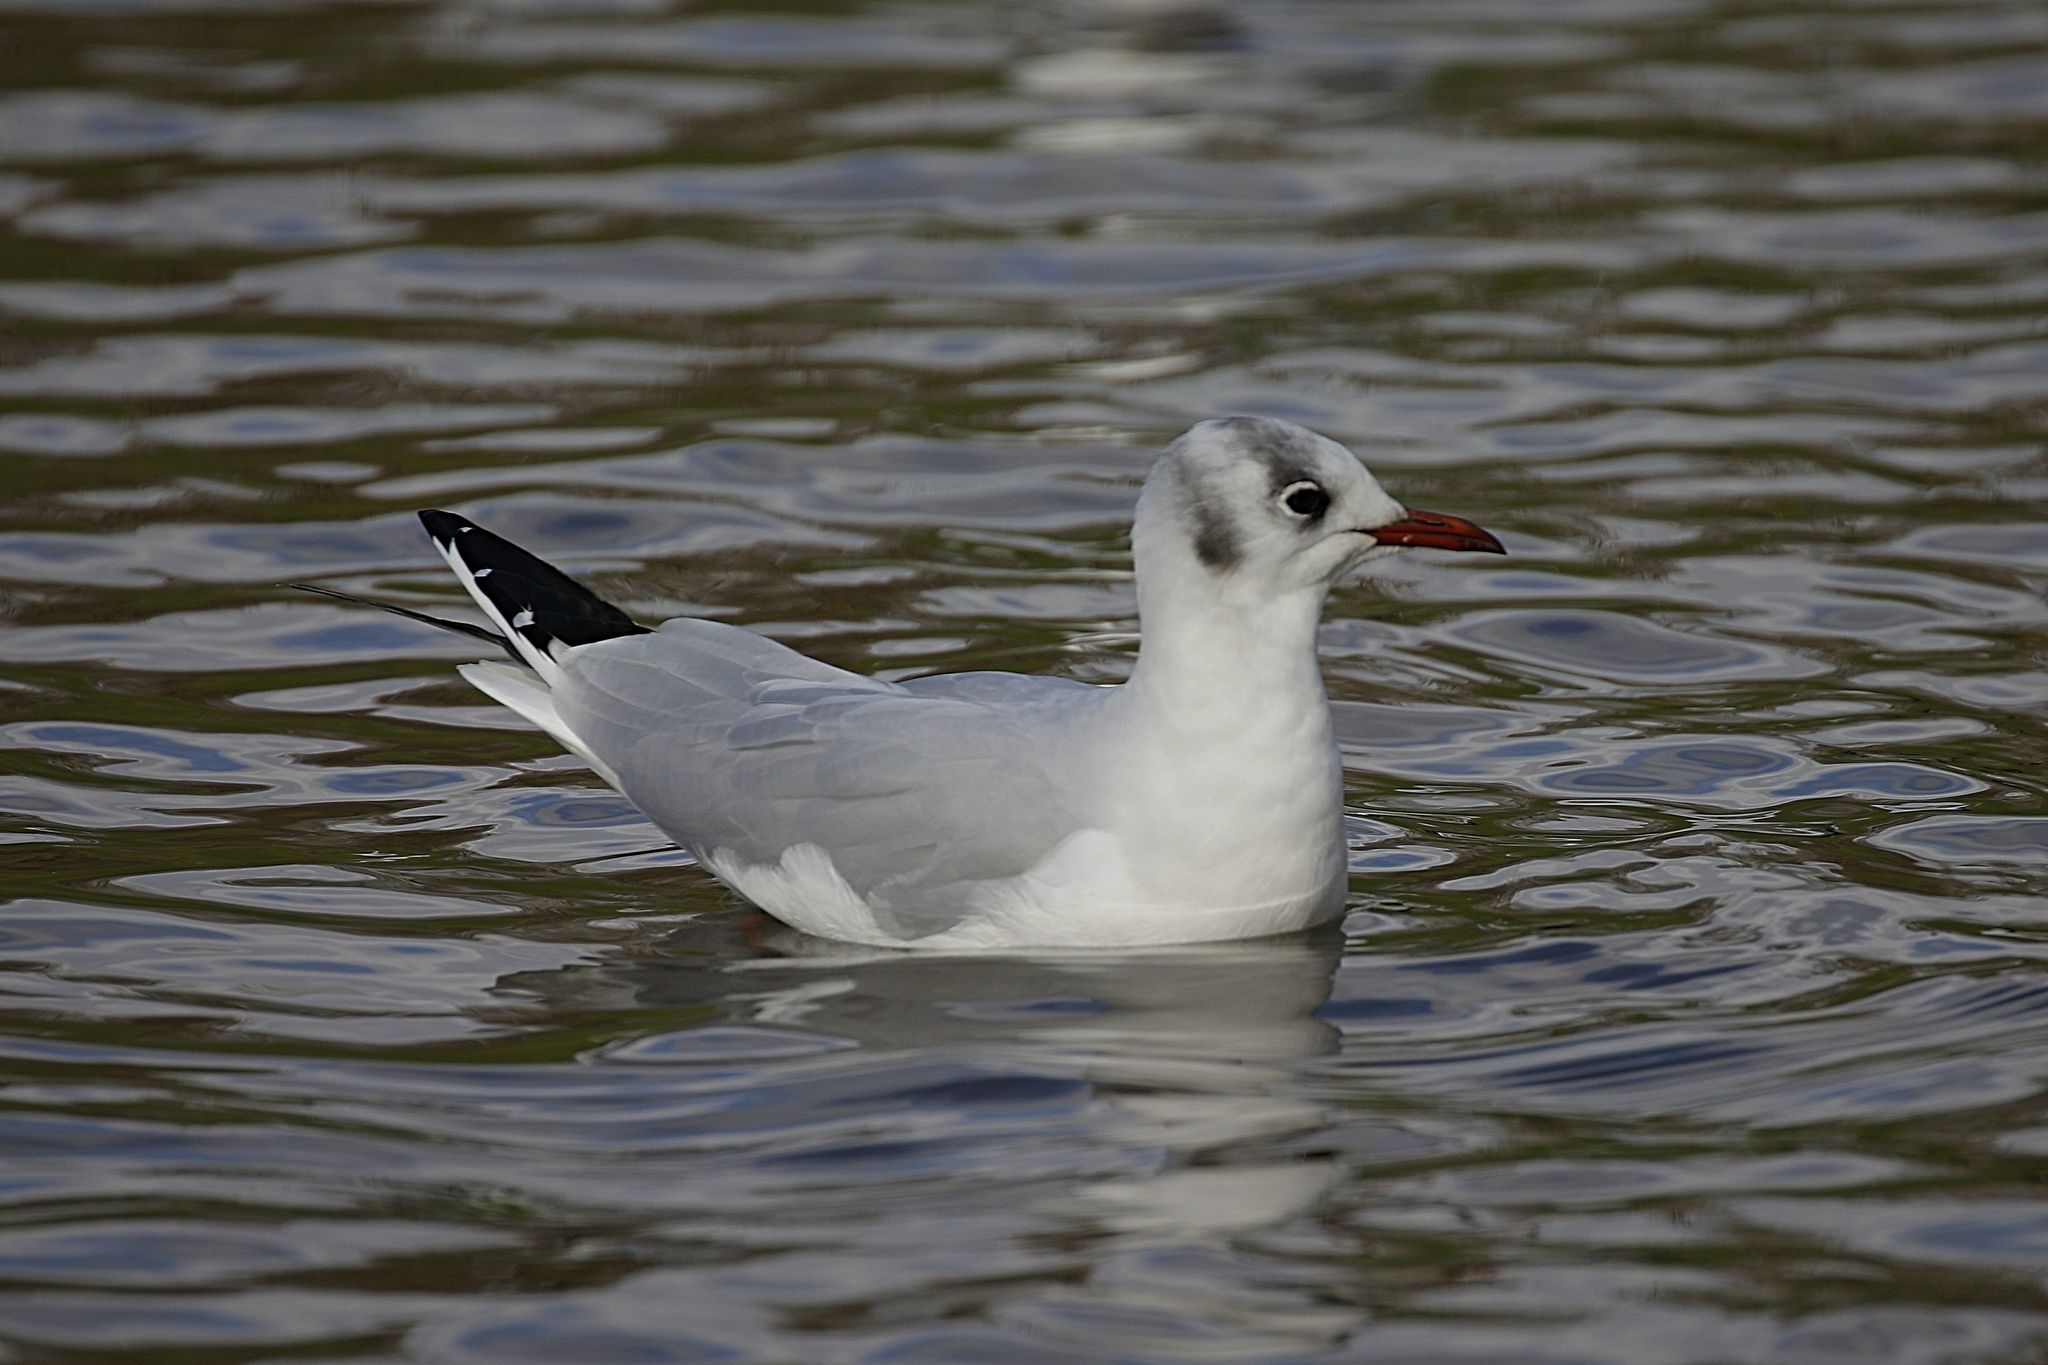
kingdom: Animalia
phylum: Chordata
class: Aves
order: Charadriiformes
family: Laridae
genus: Chroicocephalus
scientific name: Chroicocephalus ridibundus
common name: Black-headed gull
